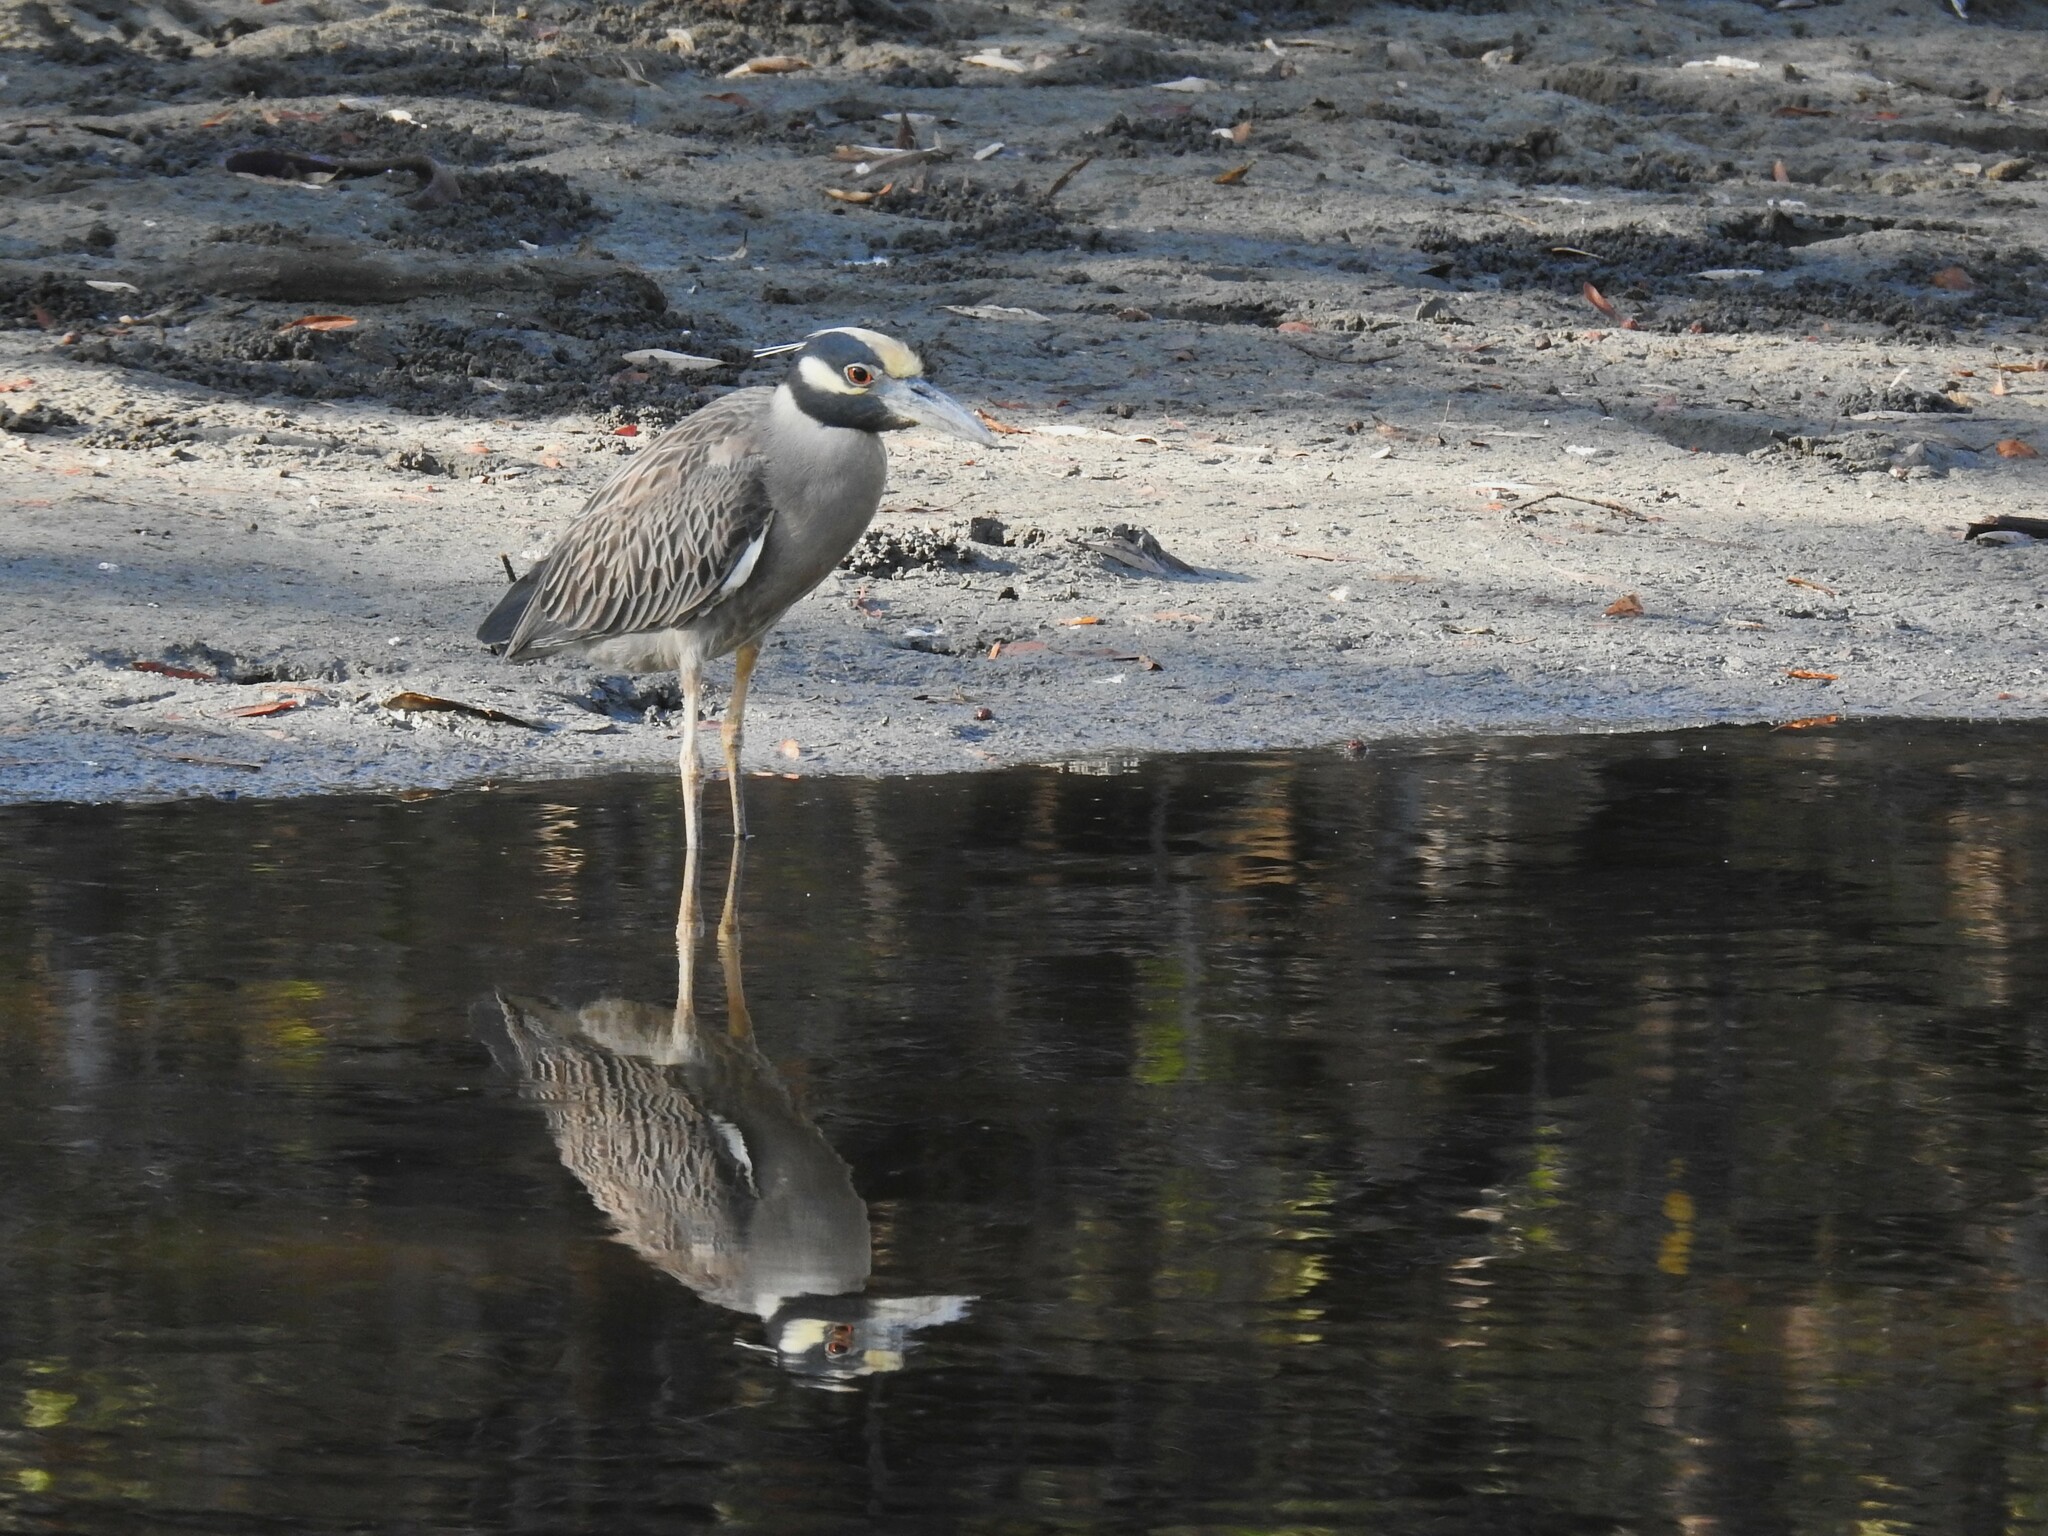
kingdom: Animalia
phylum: Chordata
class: Aves
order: Pelecaniformes
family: Ardeidae
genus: Nyctanassa
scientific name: Nyctanassa violacea
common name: Yellow-crowned night heron
